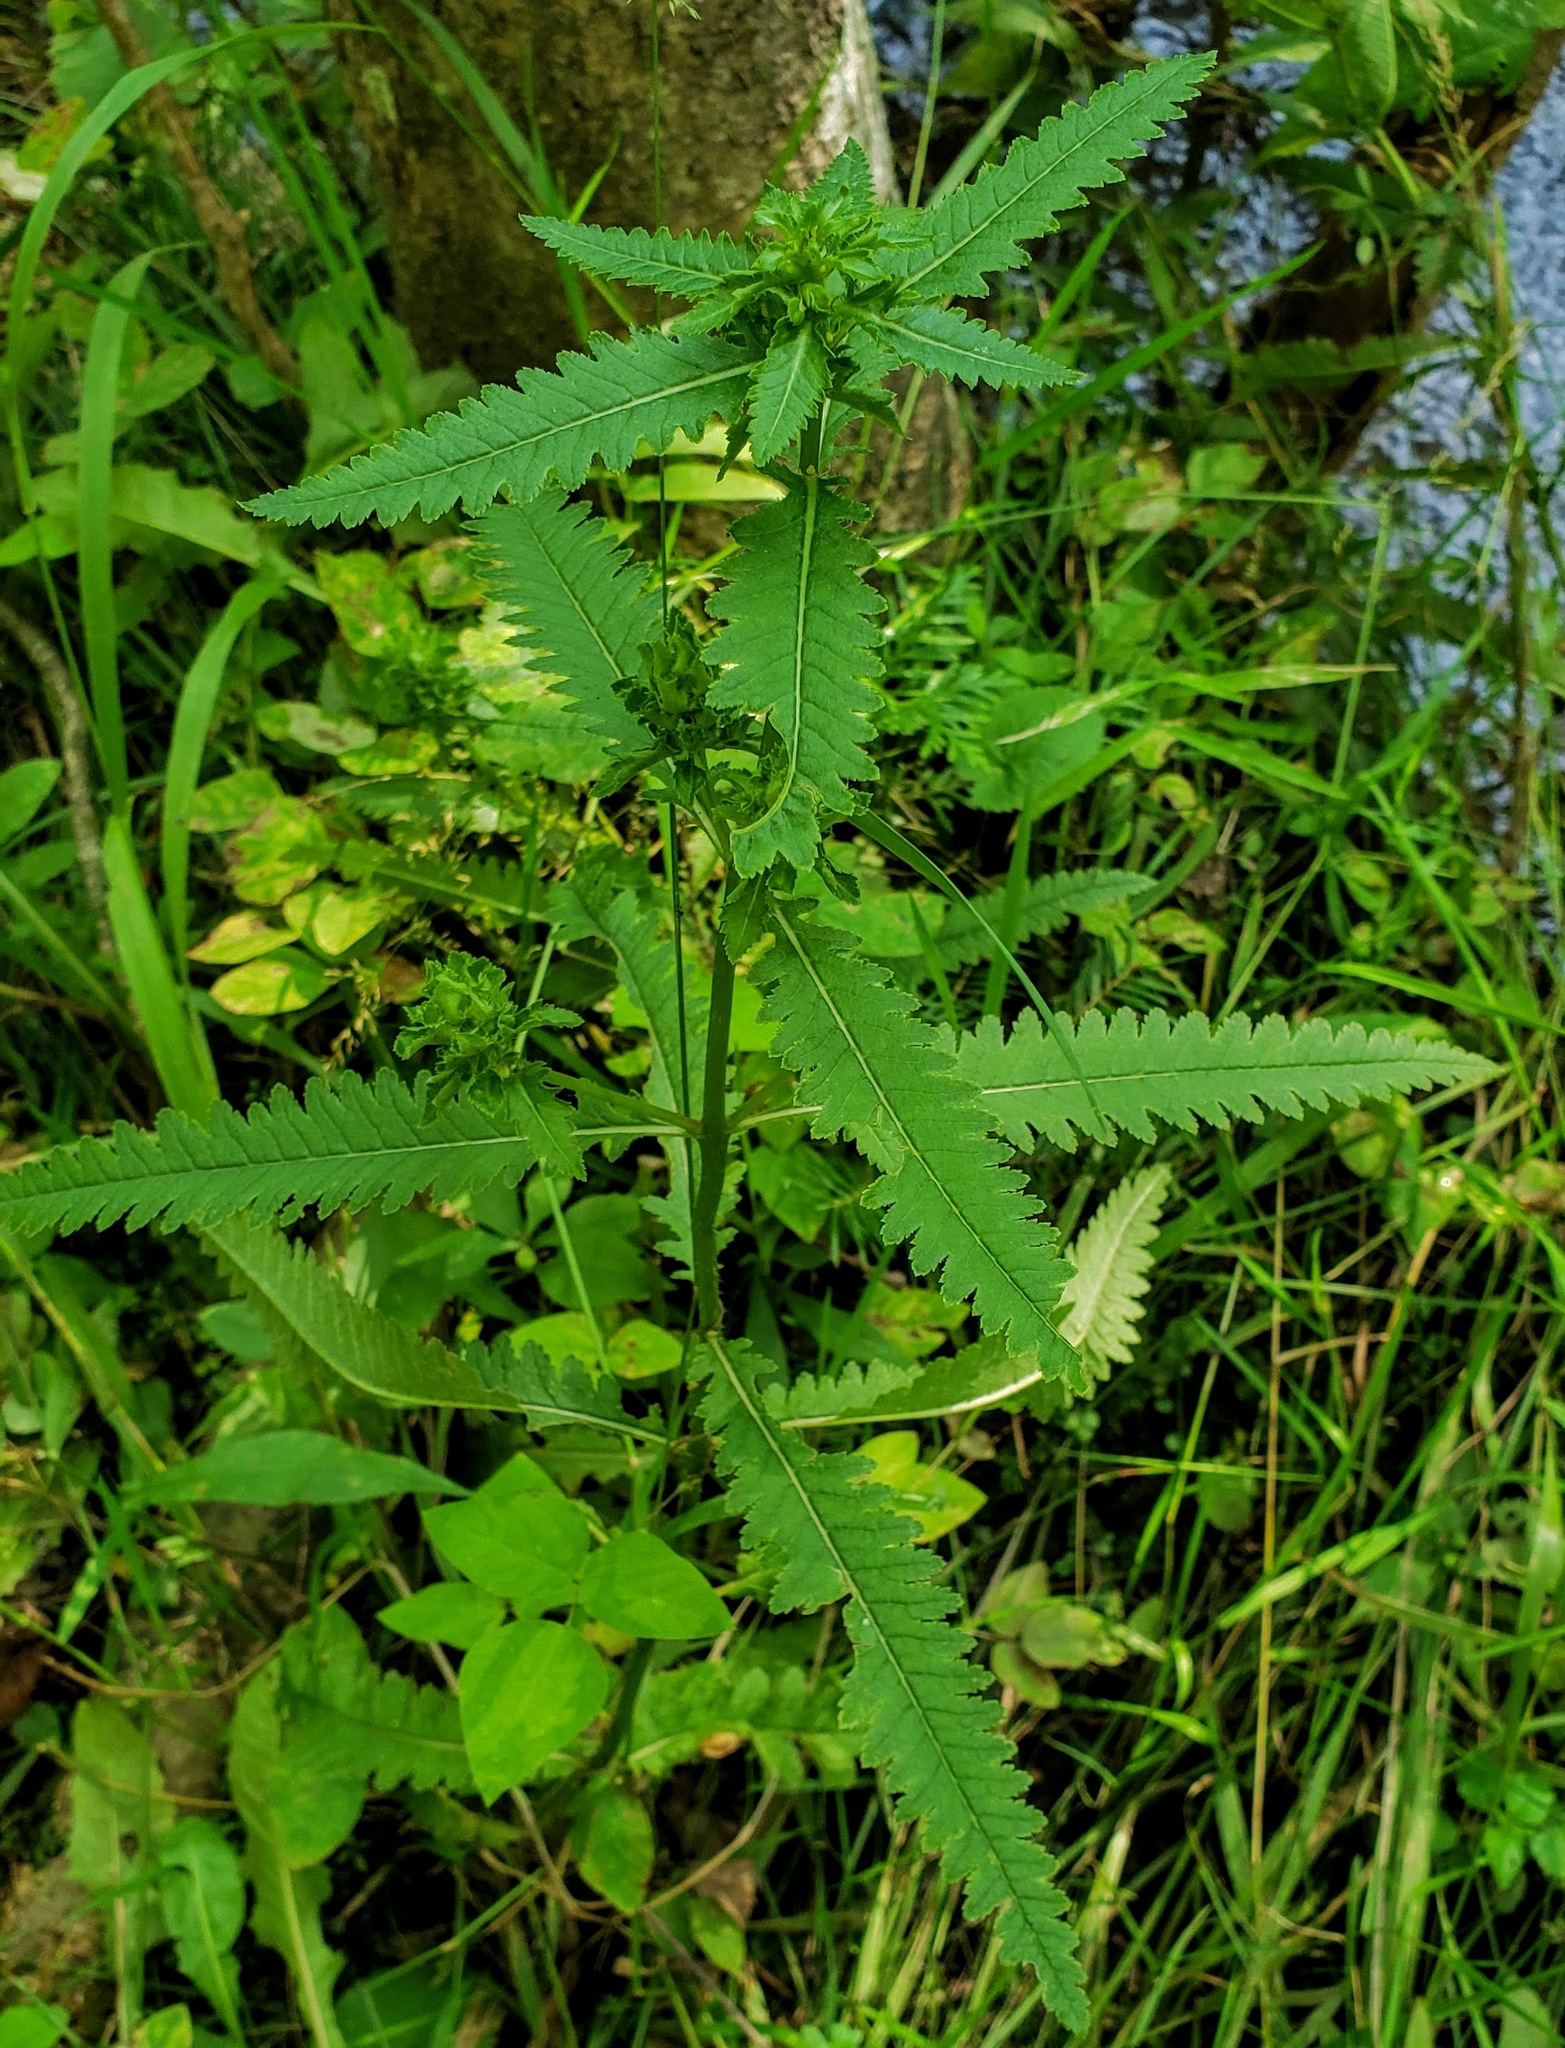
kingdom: Plantae
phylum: Tracheophyta
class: Magnoliopsida
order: Lamiales
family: Orobanchaceae
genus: Pedicularis
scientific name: Pedicularis lanceolata
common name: Swamp lousewort
